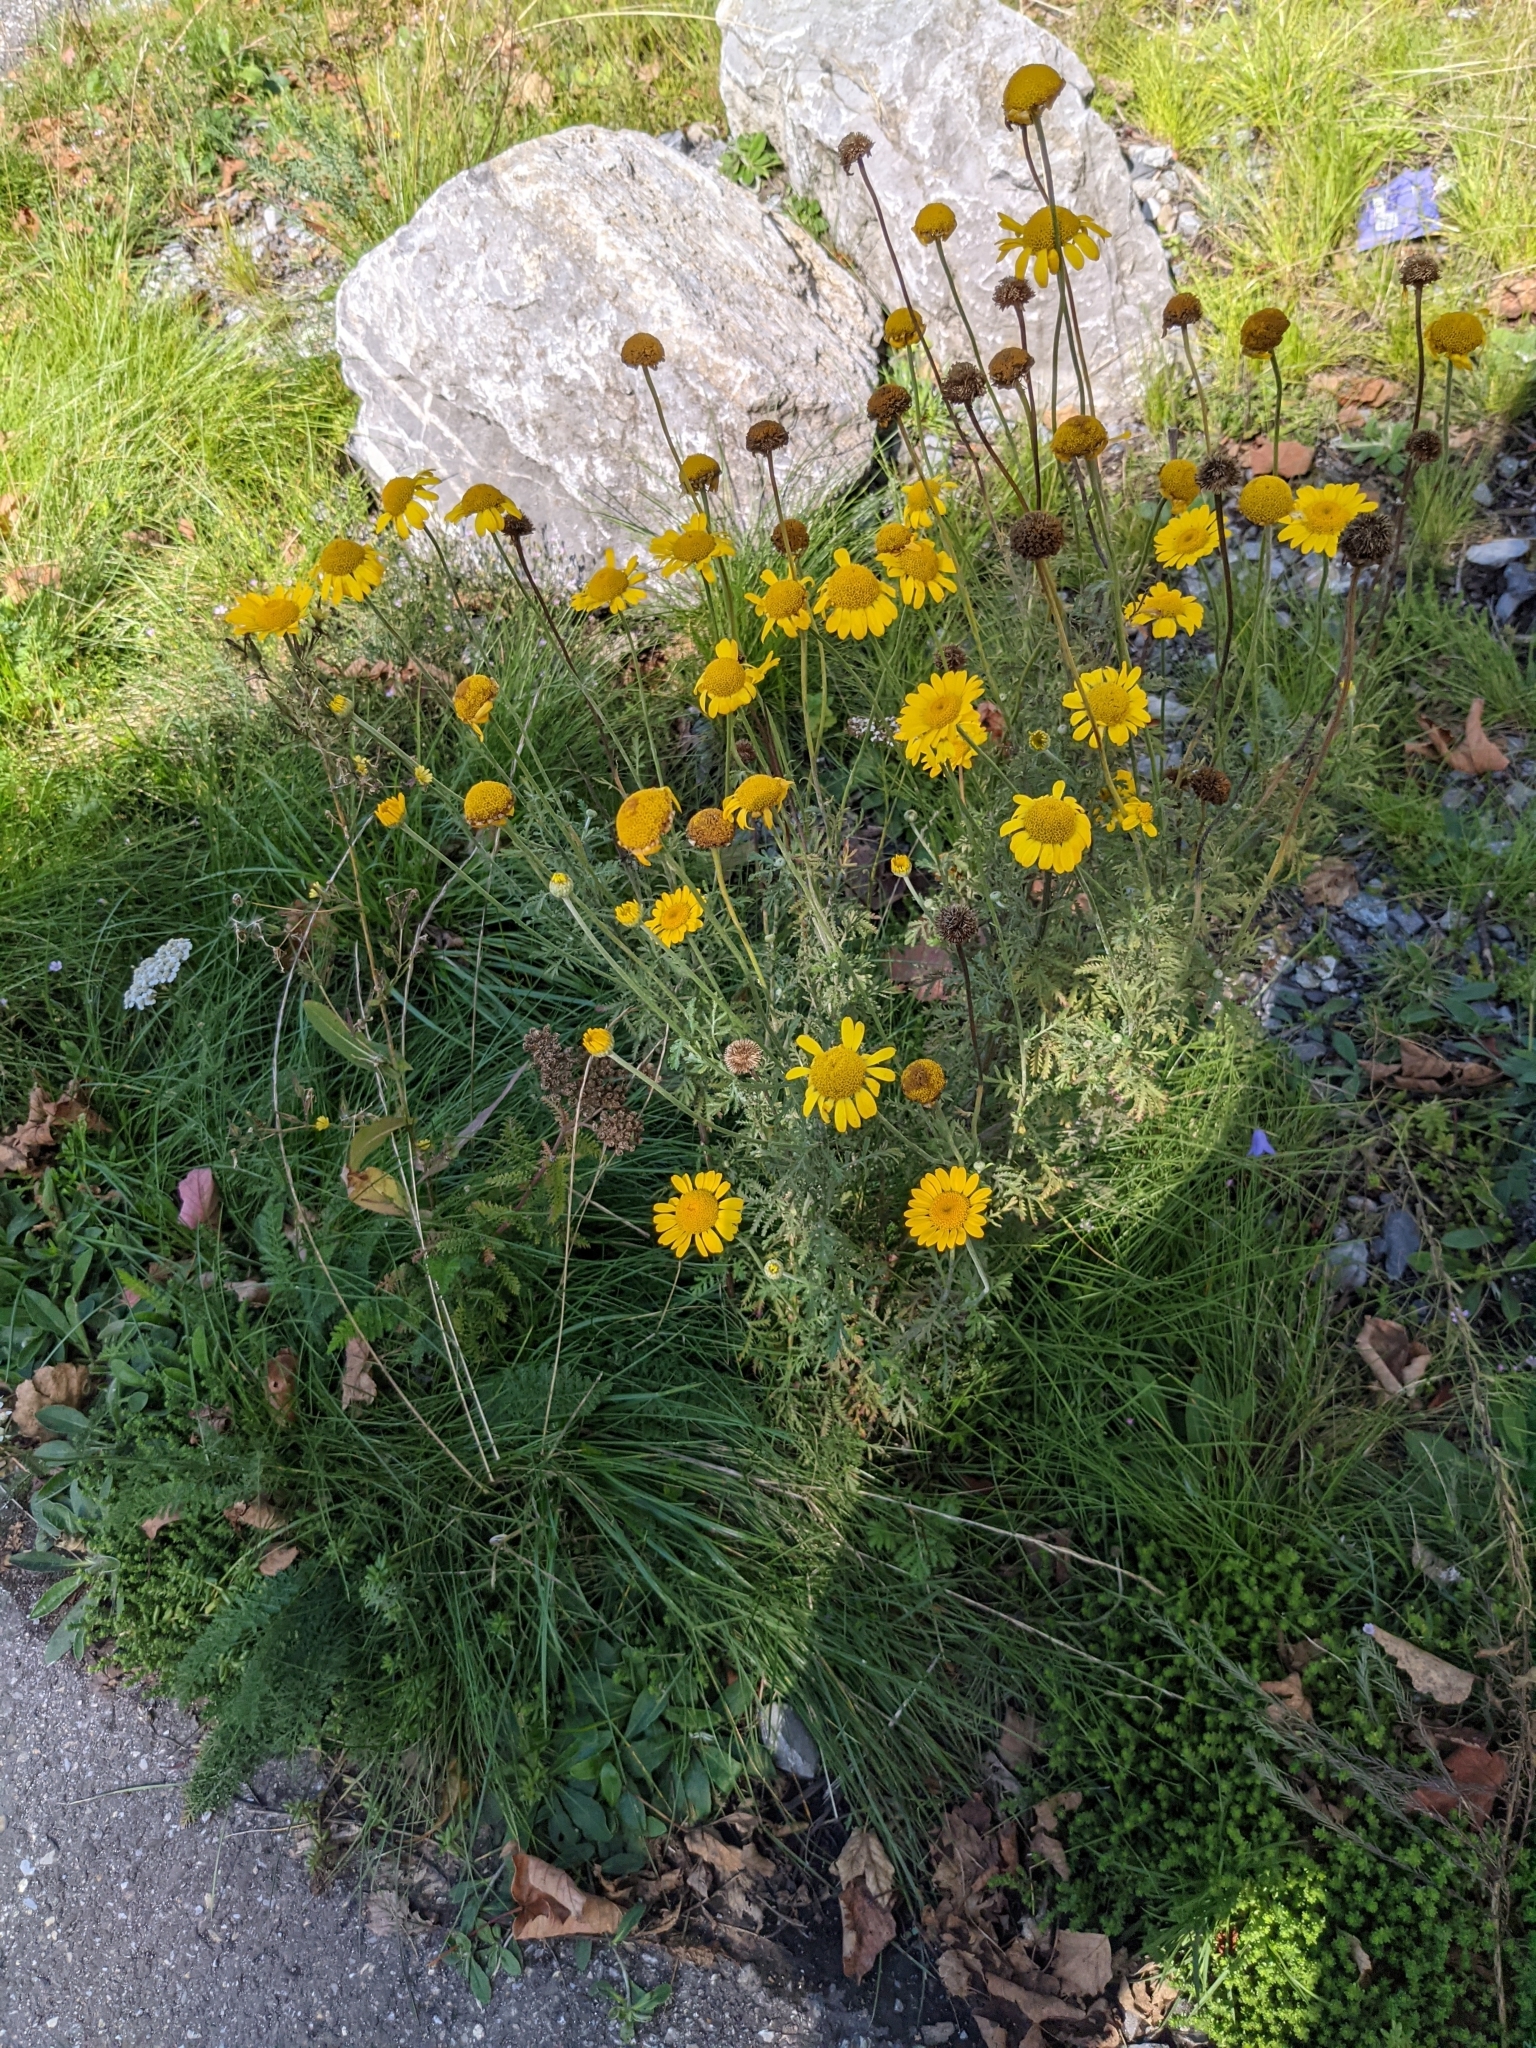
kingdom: Plantae
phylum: Tracheophyta
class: Magnoliopsida
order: Asterales
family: Asteraceae
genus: Cota
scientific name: Cota tinctoria
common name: Golden chamomile
